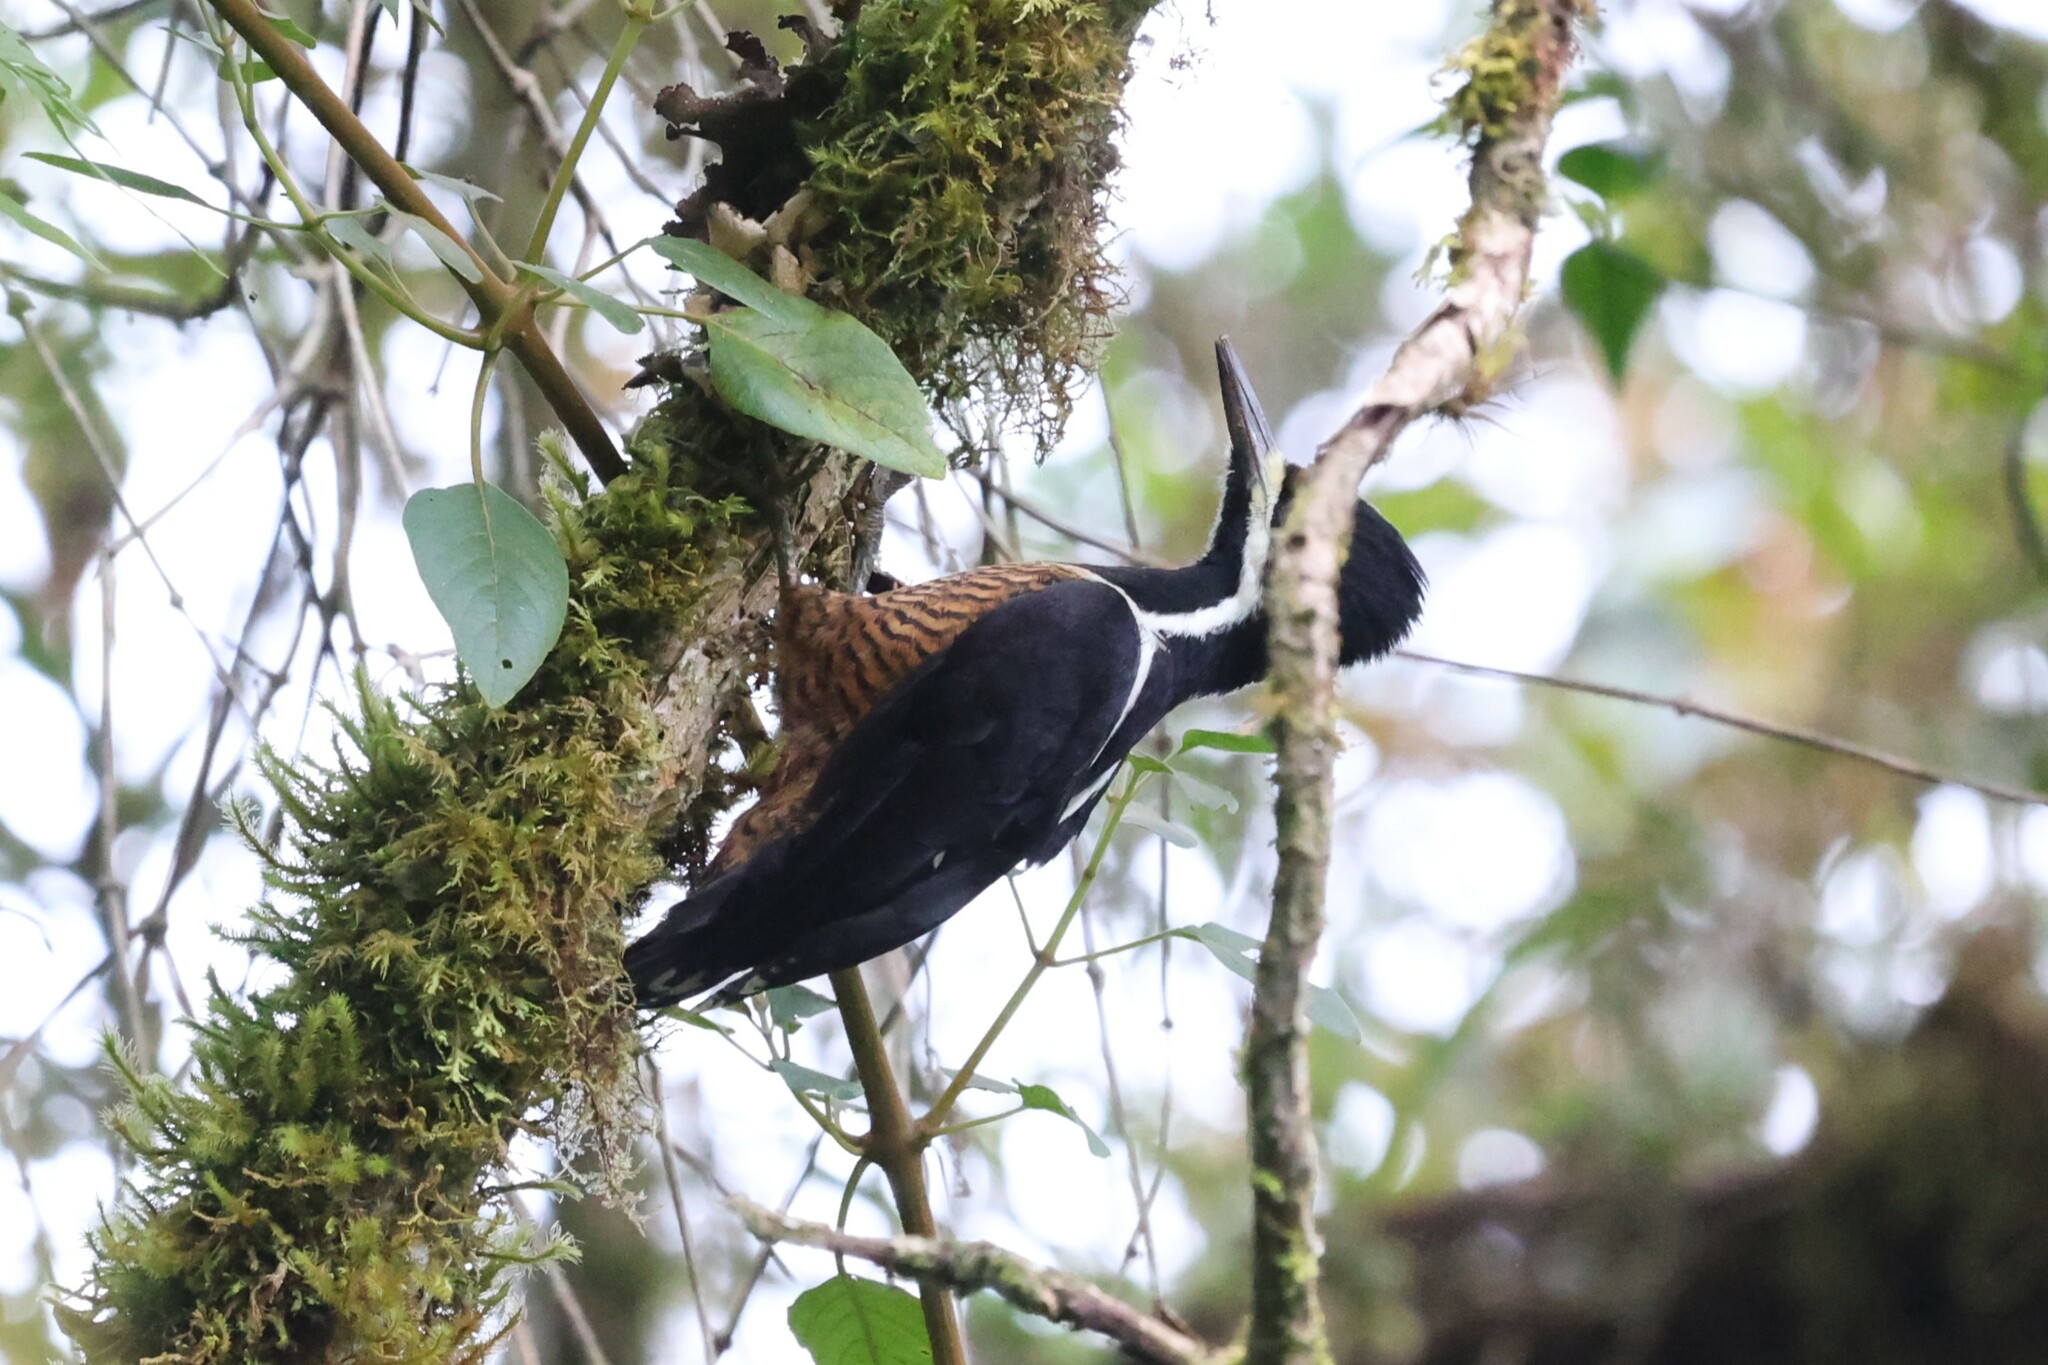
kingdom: Animalia
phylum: Chordata
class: Aves
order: Piciformes
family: Picidae
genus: Campephilus
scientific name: Campephilus pollens
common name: Powerful woodpecker
